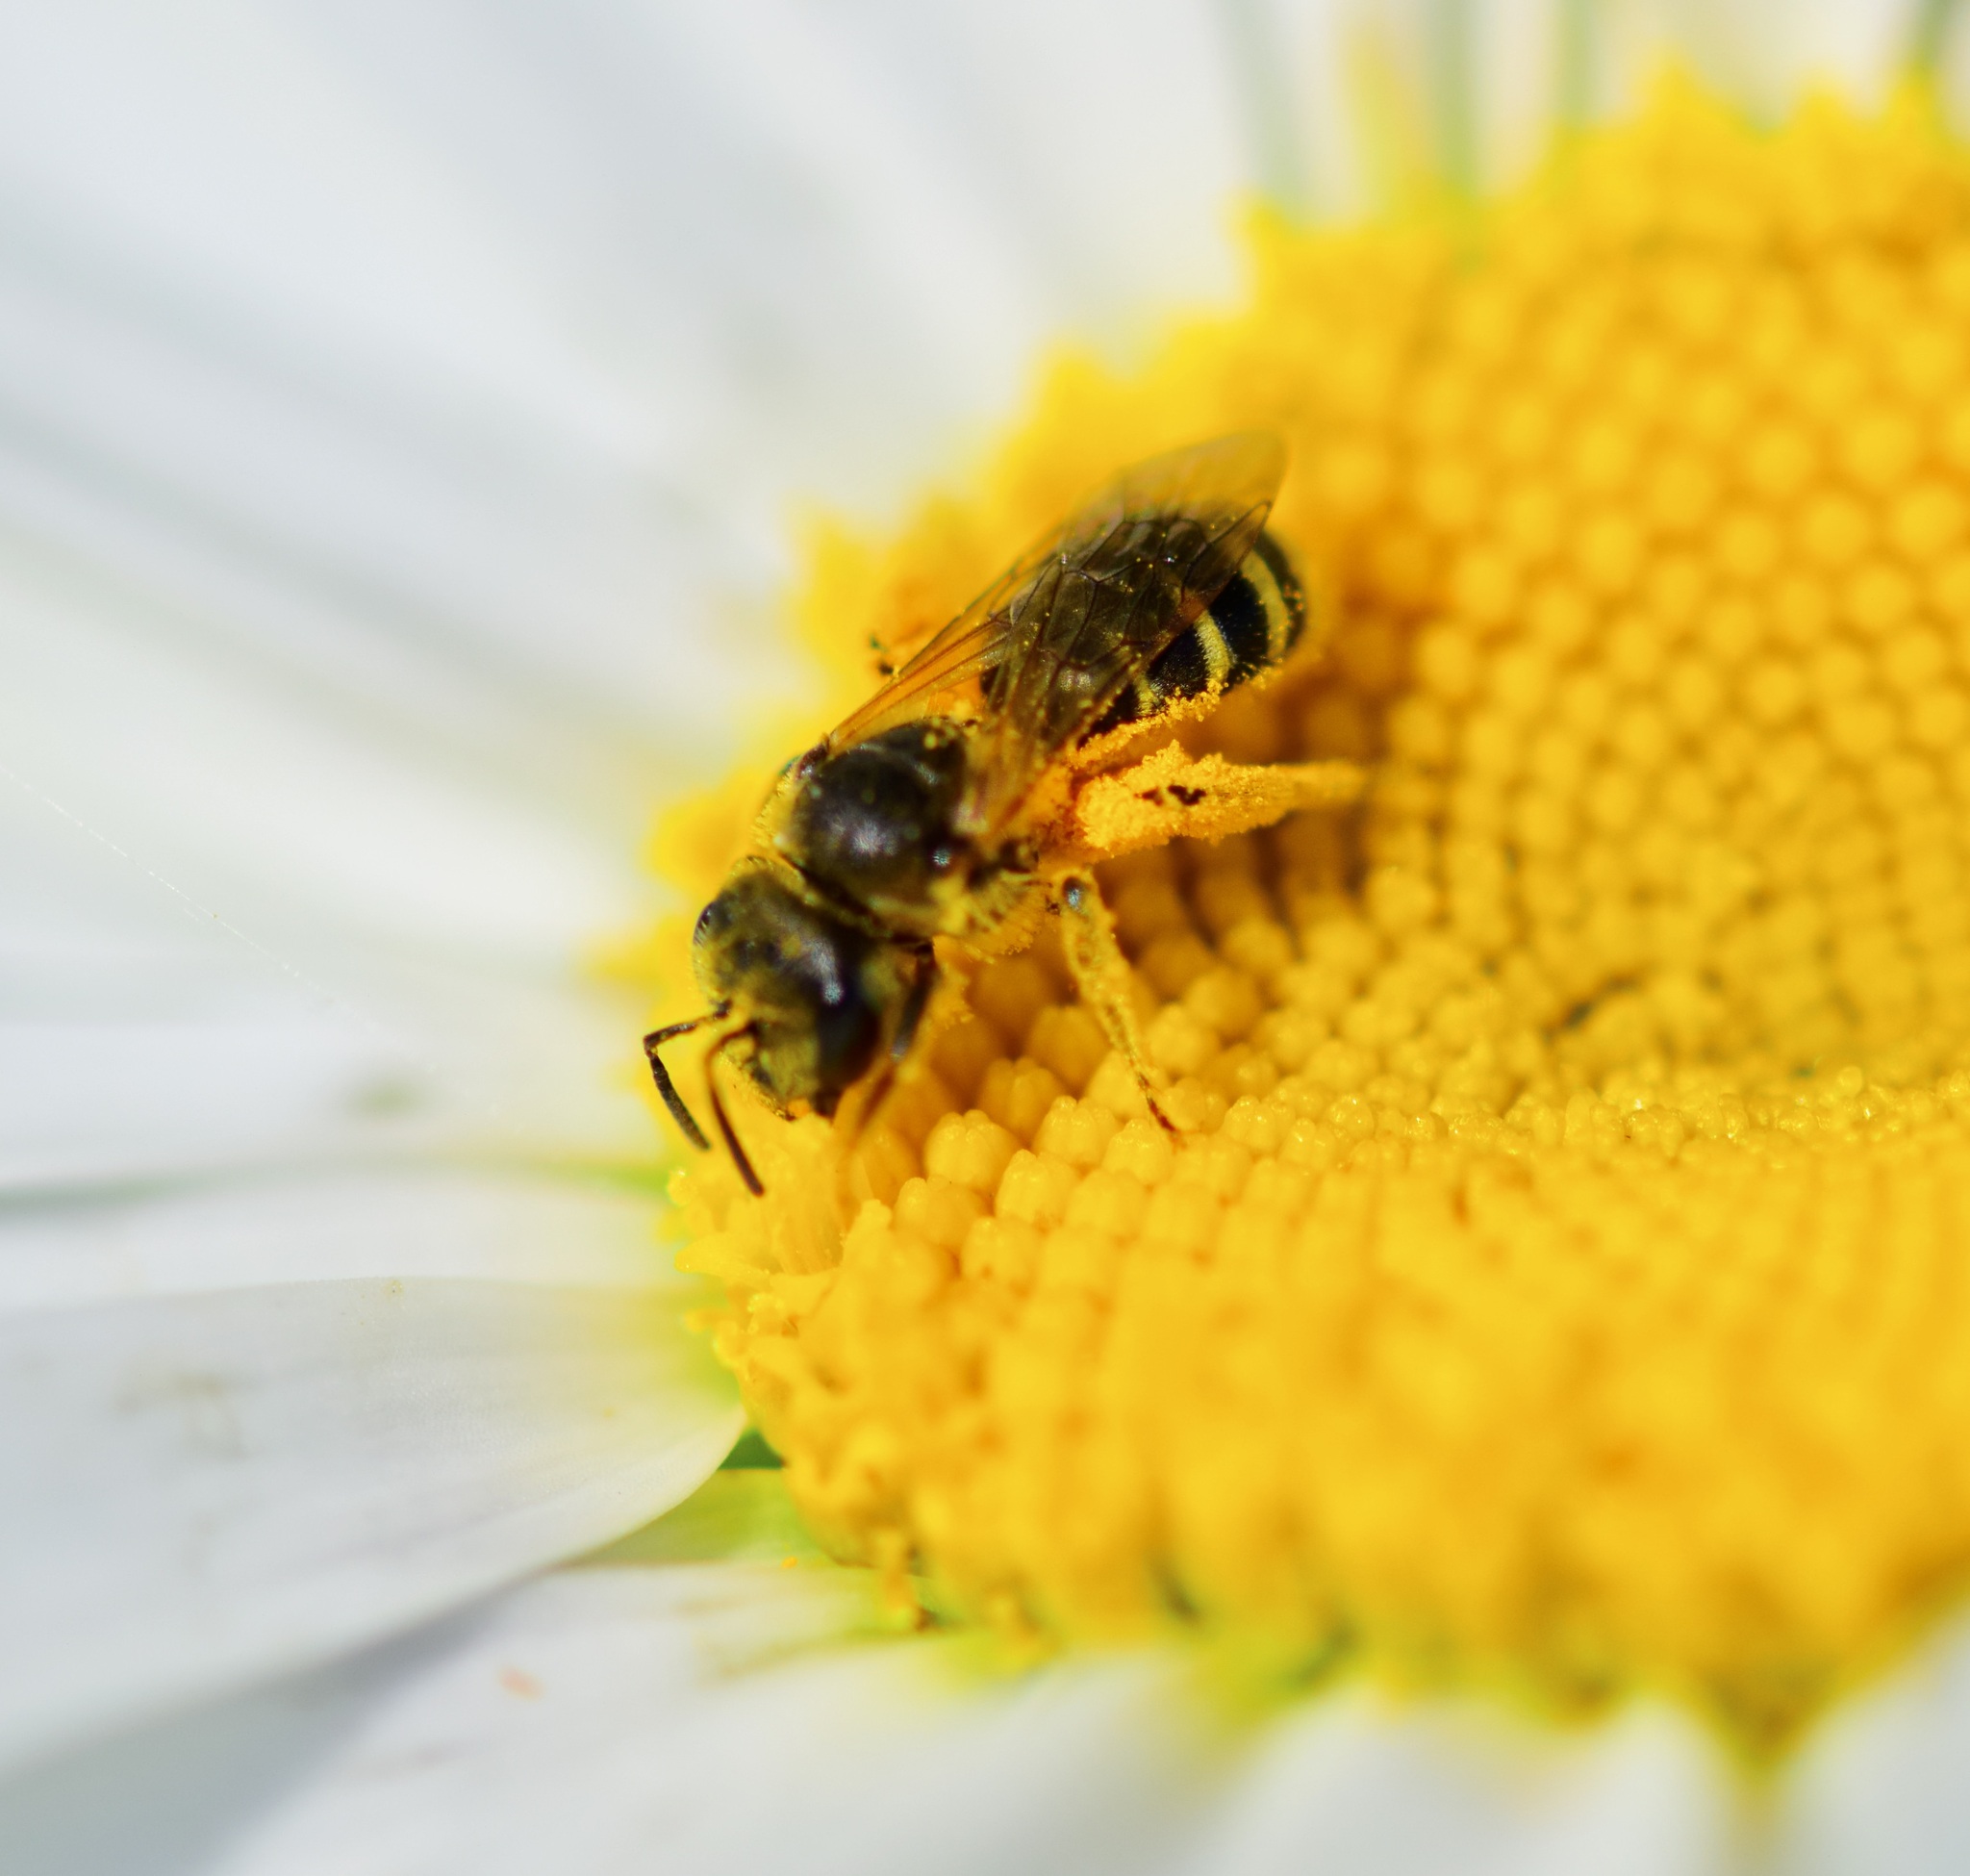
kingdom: Animalia
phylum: Arthropoda
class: Insecta
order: Hymenoptera
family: Halictidae
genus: Halictus
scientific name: Halictus ligatus
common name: Ligated furrow bee
